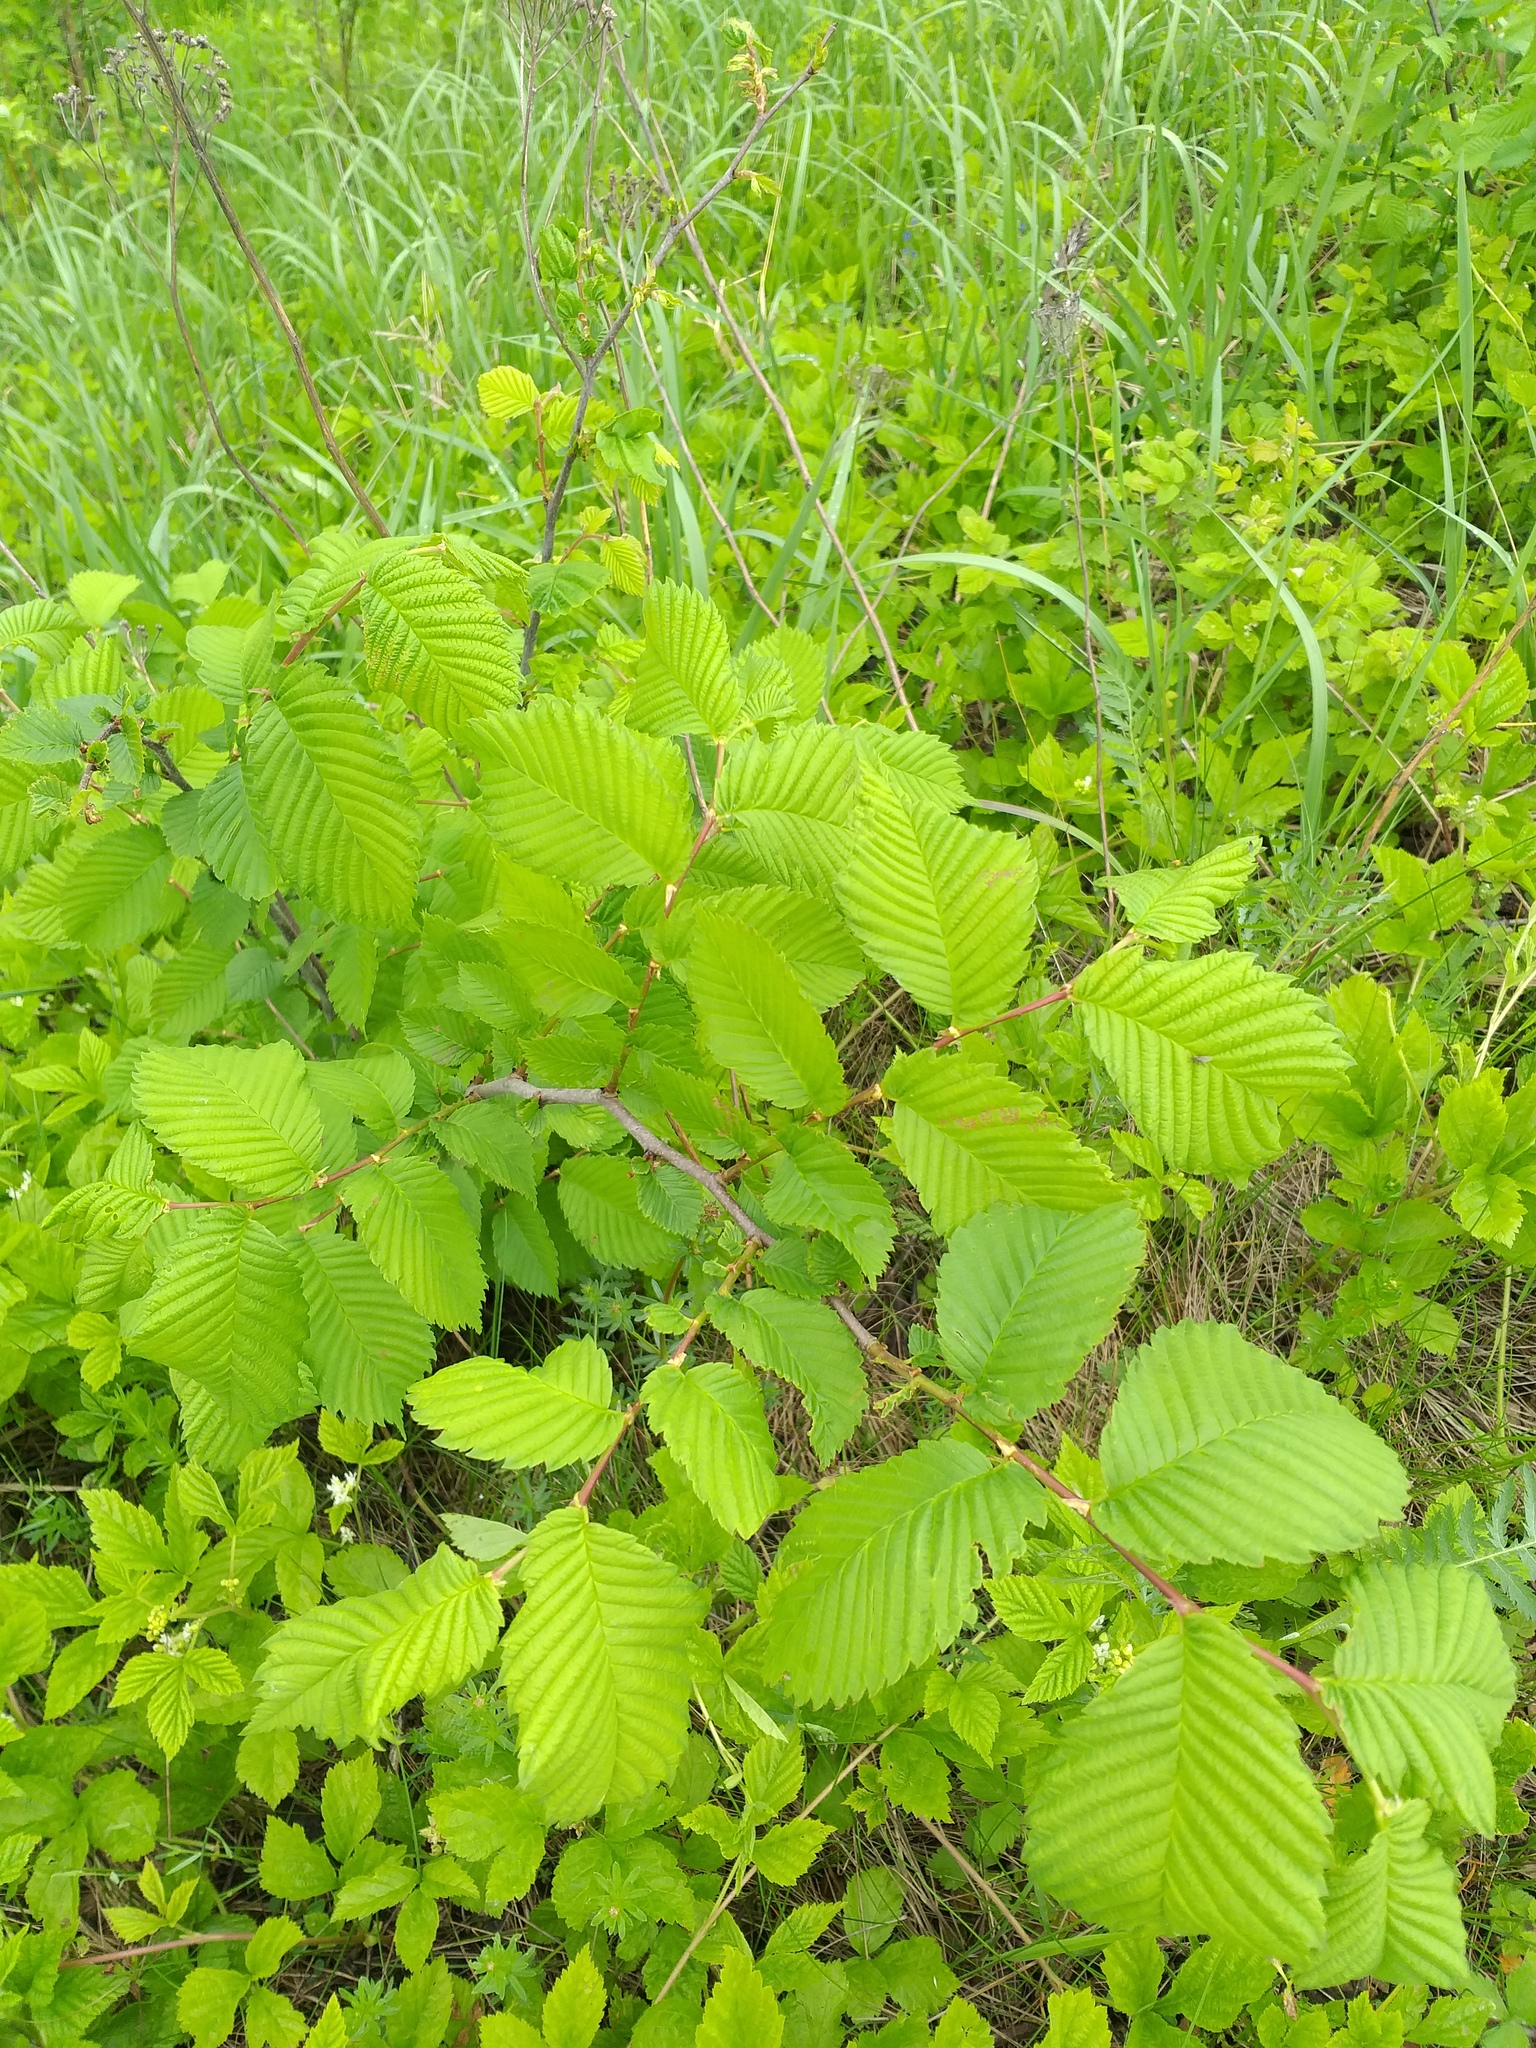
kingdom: Plantae
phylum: Tracheophyta
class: Magnoliopsida
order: Rosales
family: Ulmaceae
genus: Ulmus
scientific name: Ulmus laevis
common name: European white-elm
